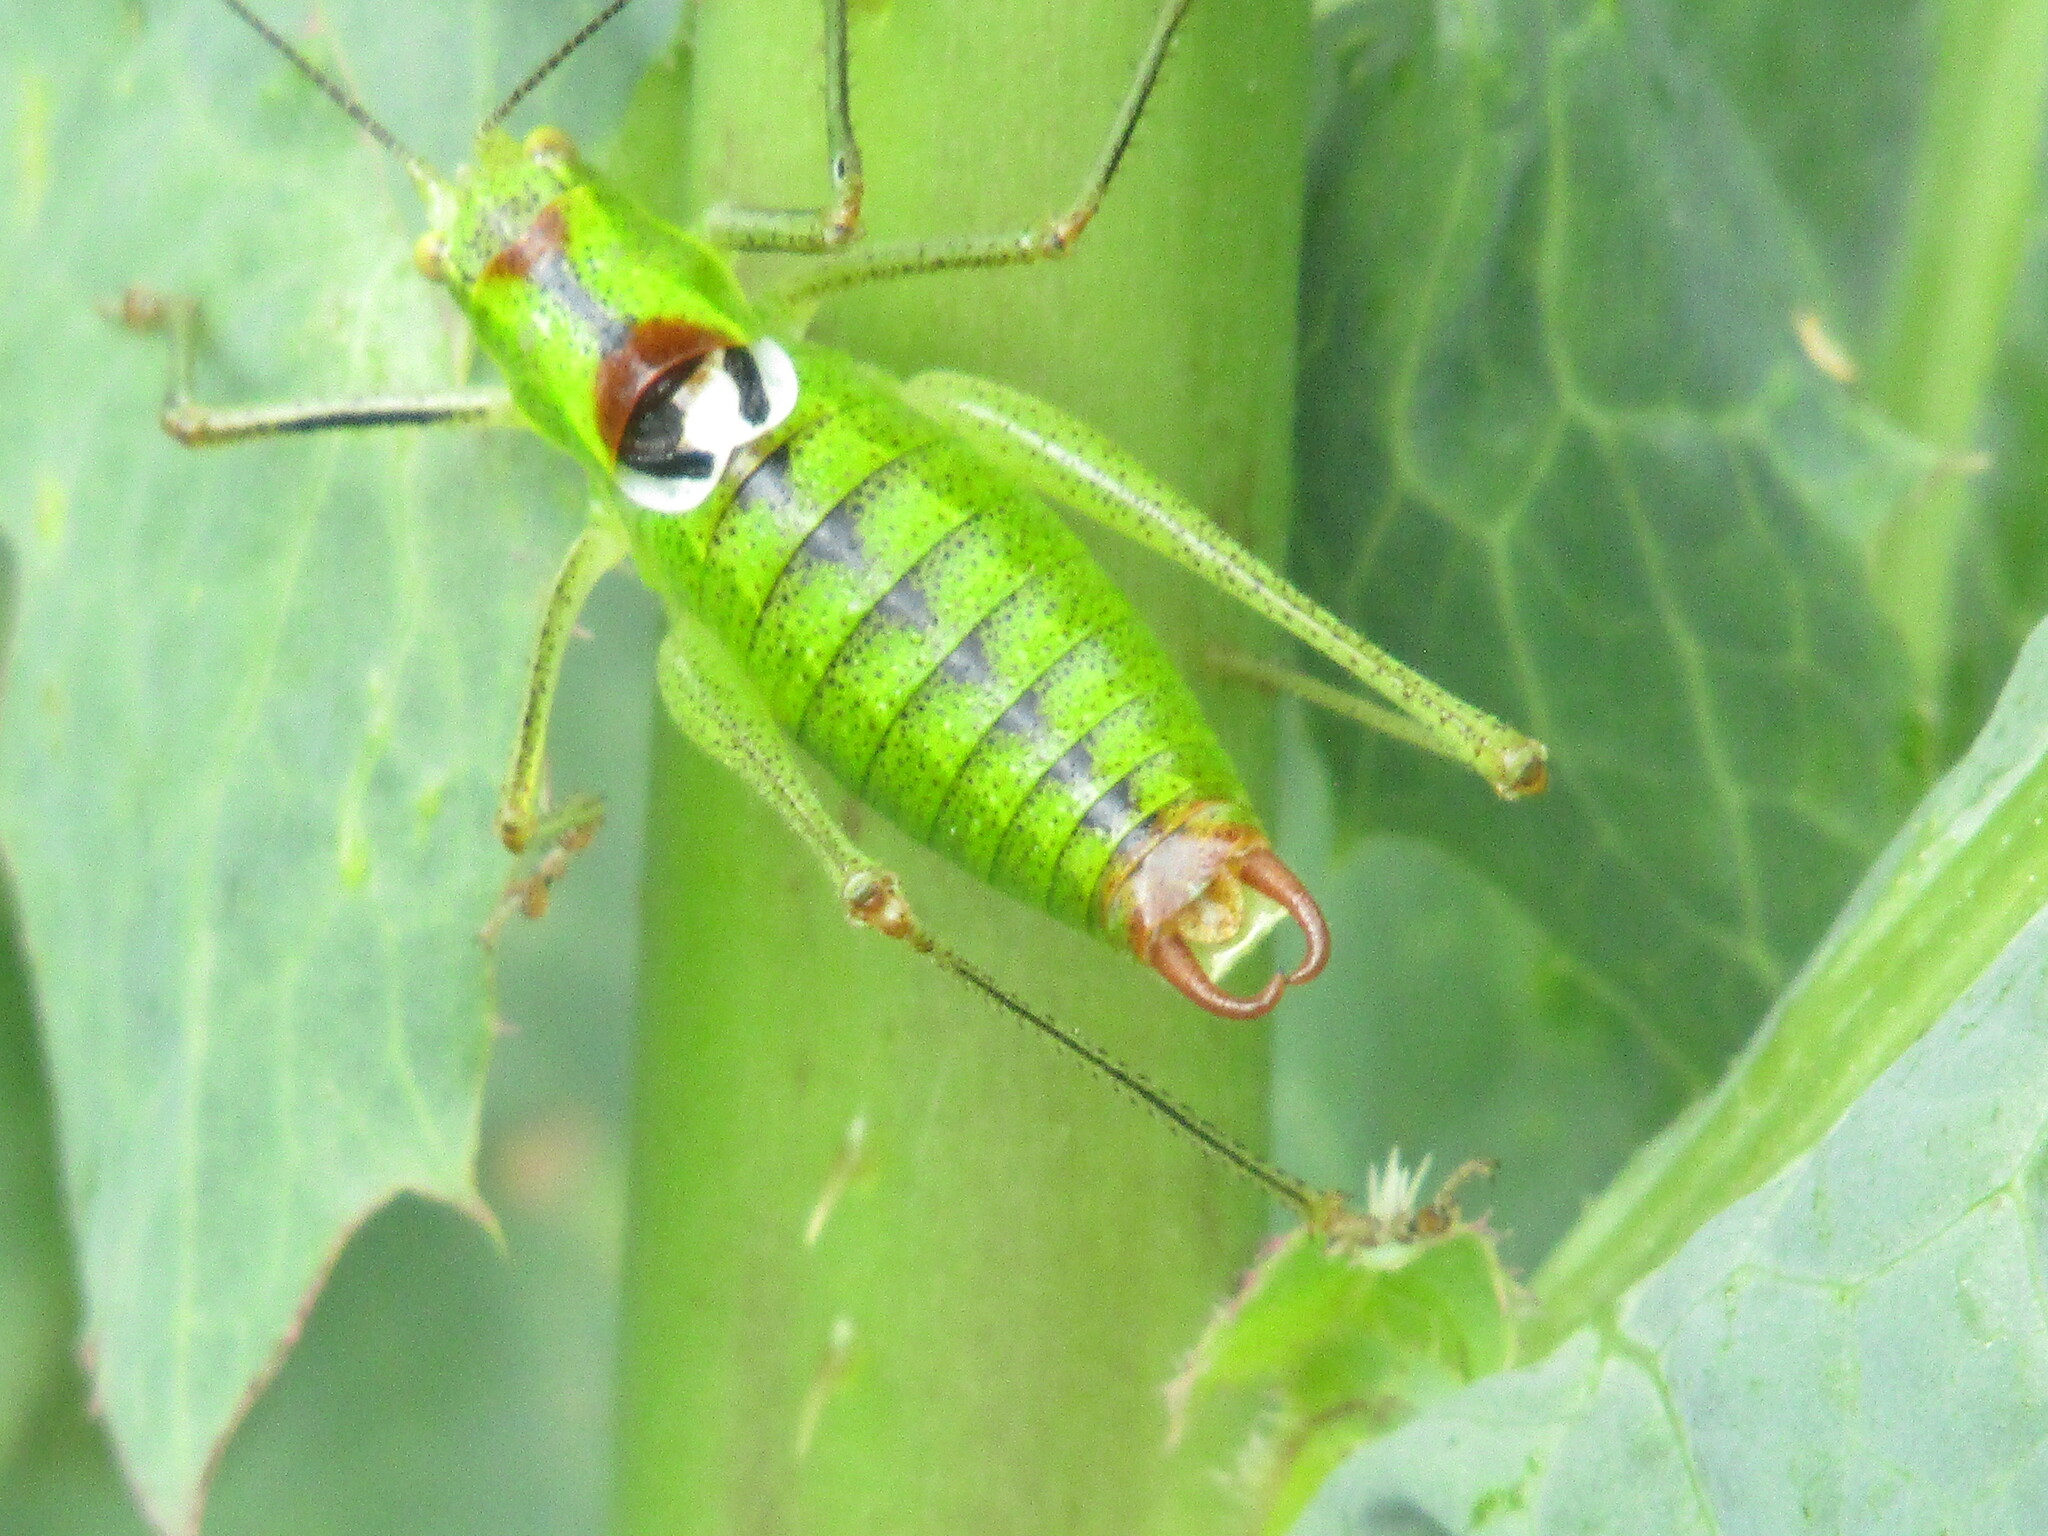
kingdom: Animalia
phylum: Arthropoda
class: Insecta
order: Orthoptera
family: Tettigoniidae
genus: Poecilimon
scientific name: Poecilimon thoracicus
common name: Bellied bright bush-cricket
